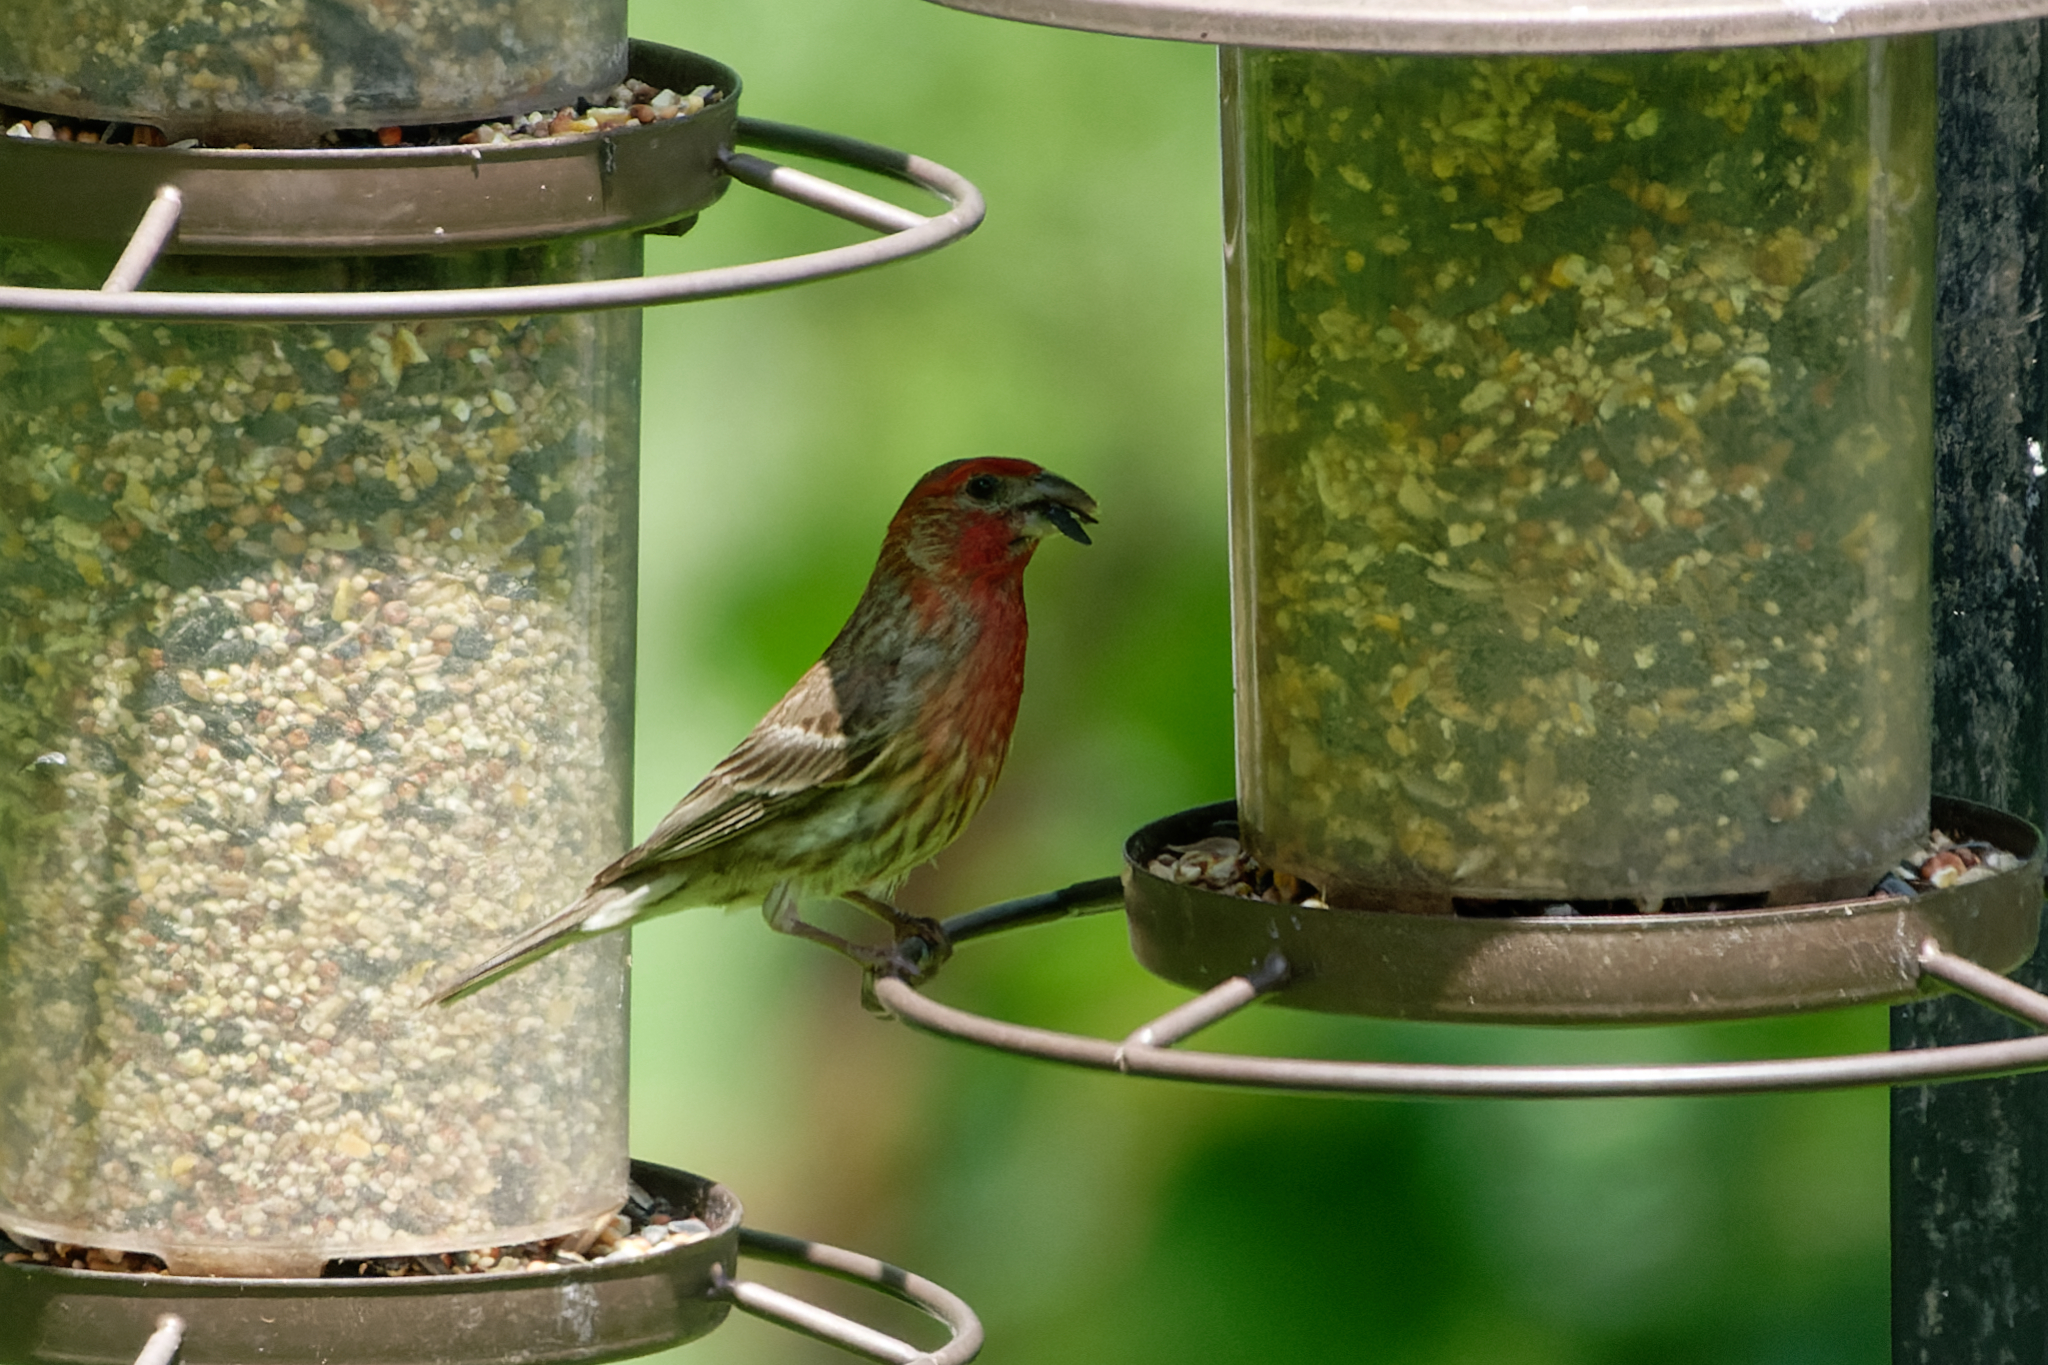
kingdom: Animalia
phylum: Chordata
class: Aves
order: Passeriformes
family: Fringillidae
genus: Haemorhous
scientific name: Haemorhous mexicanus
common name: House finch
